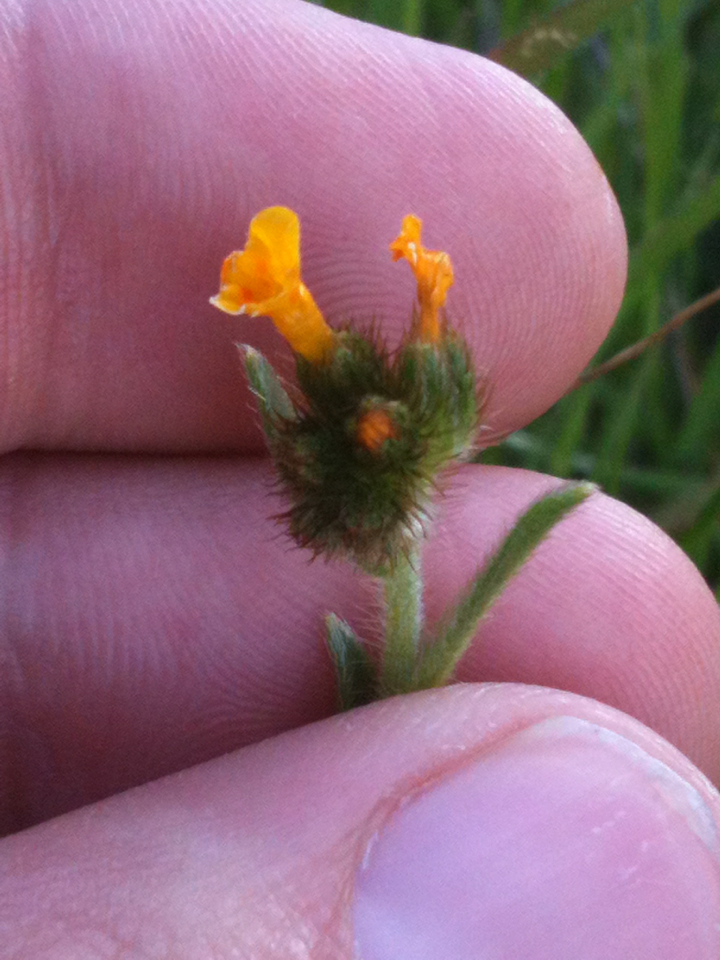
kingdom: Plantae
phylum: Tracheophyta
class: Magnoliopsida
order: Boraginales
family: Boraginaceae
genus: Amsinckia
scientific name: Amsinckia menziesii
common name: Menzies' fiddleneck
